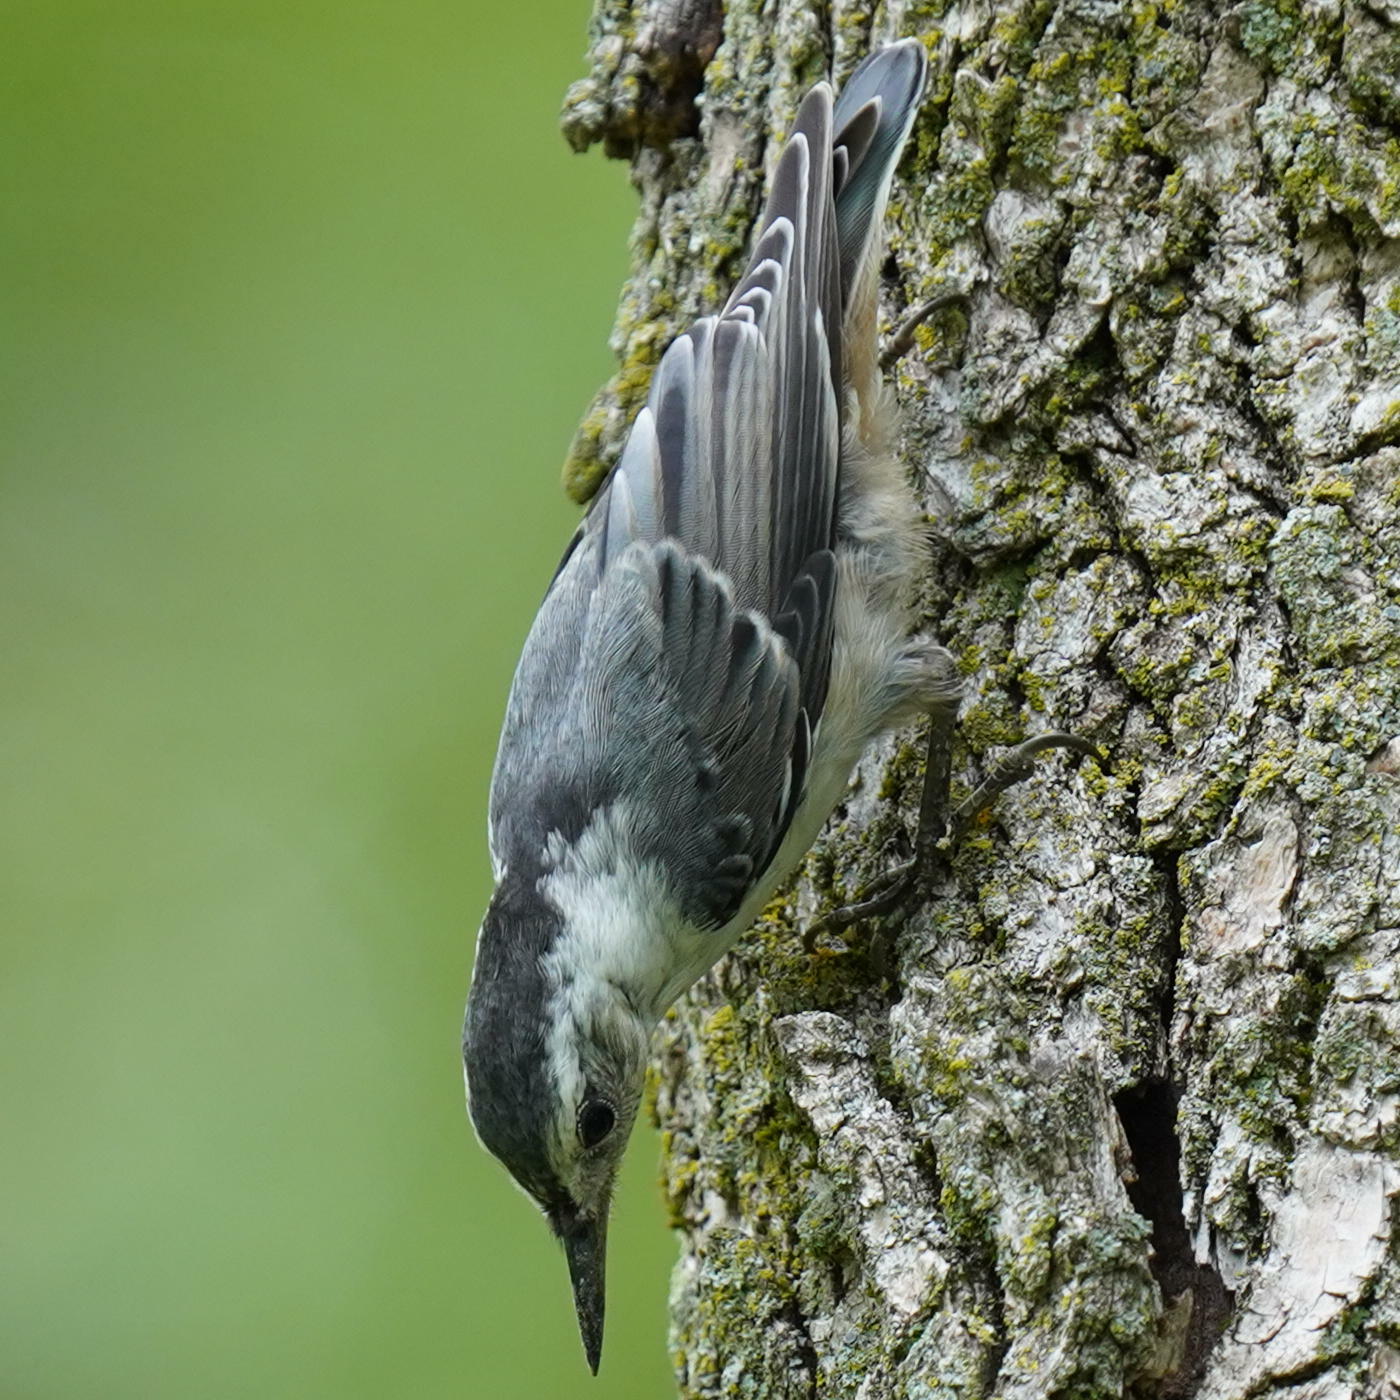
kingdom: Animalia
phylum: Chordata
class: Aves
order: Passeriformes
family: Sittidae
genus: Sitta
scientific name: Sitta carolinensis
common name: White-breasted nuthatch
